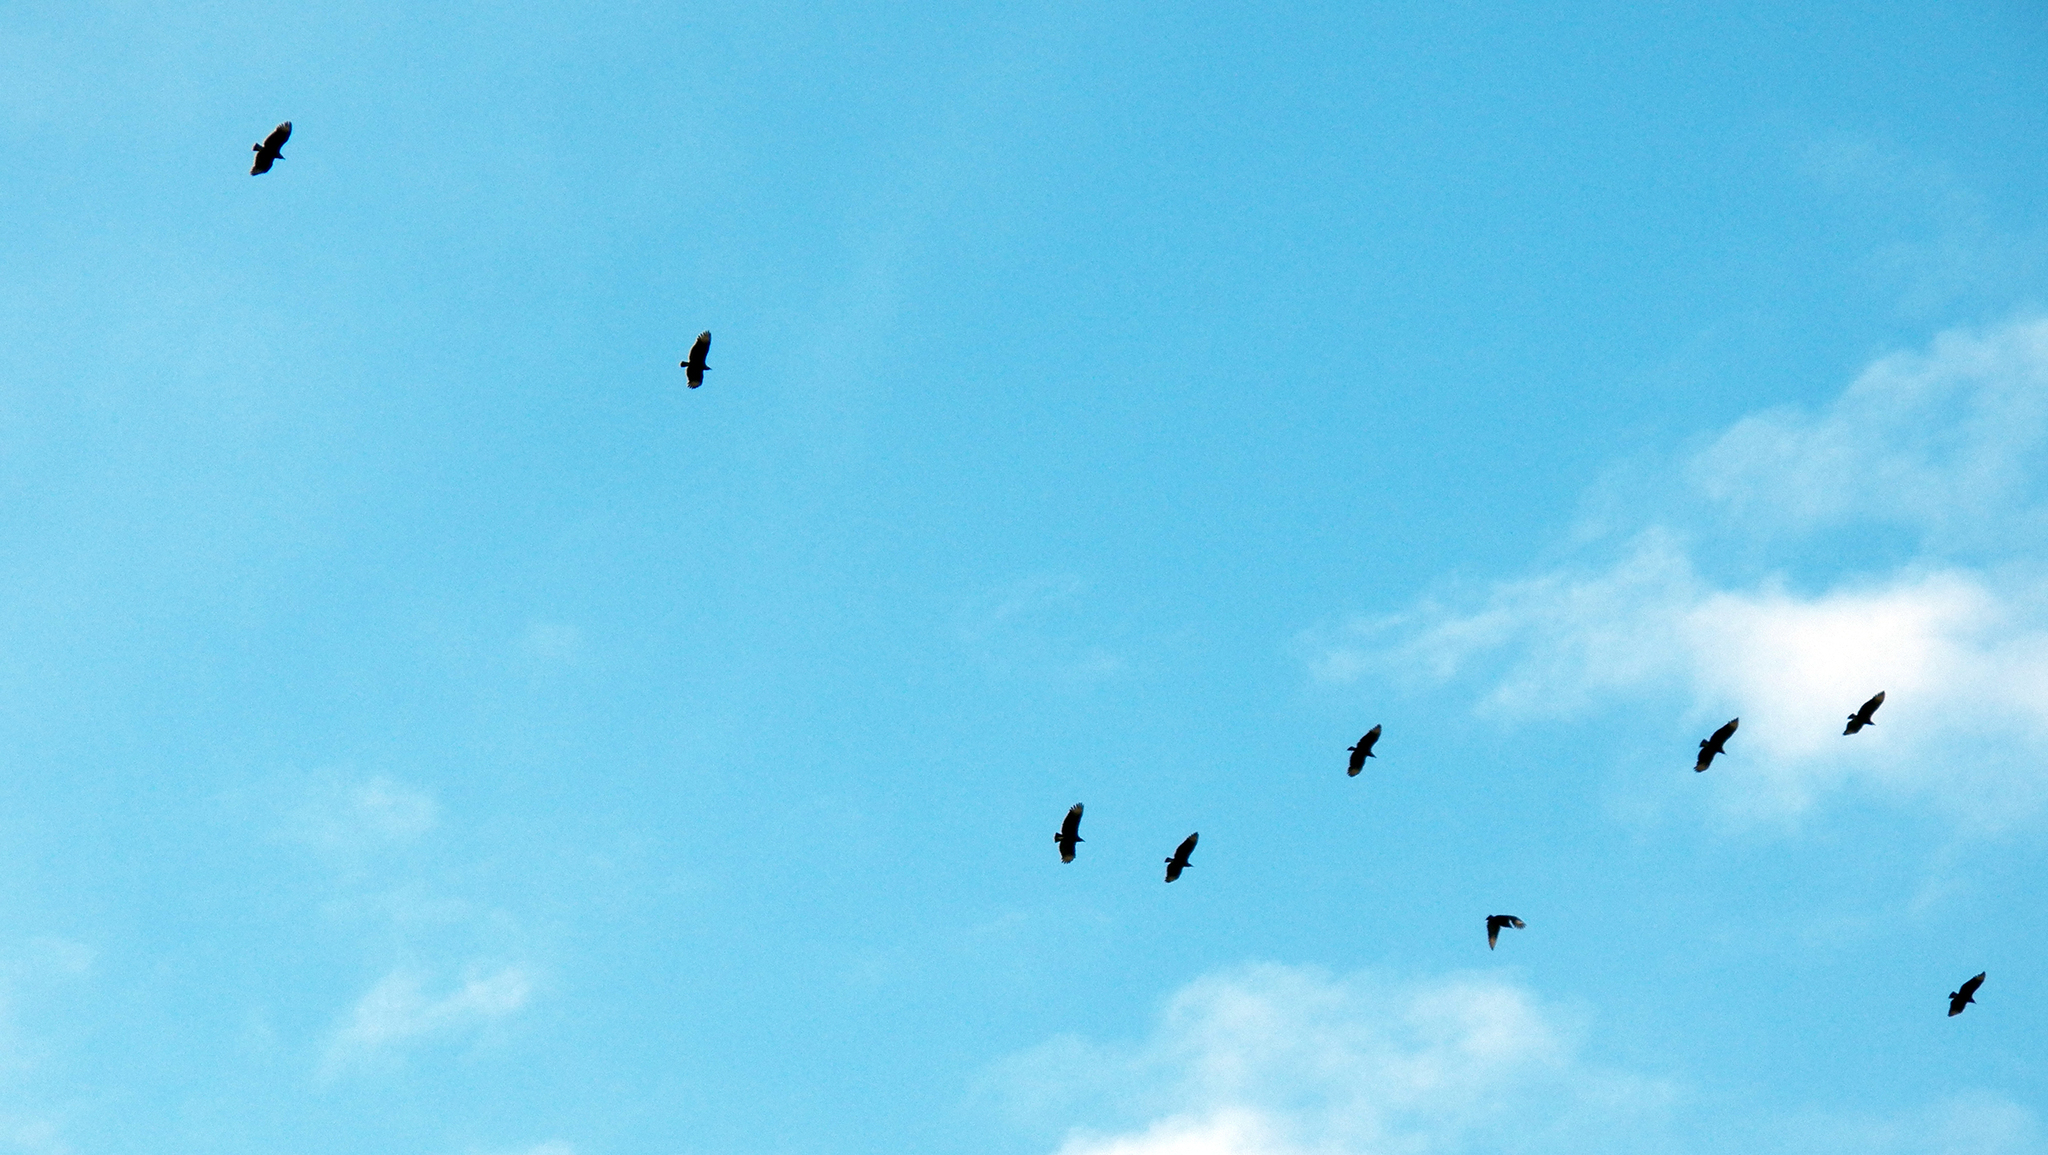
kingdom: Animalia
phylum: Chordata
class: Aves
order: Accipitriformes
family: Cathartidae
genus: Coragyps
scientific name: Coragyps atratus
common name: Black vulture
